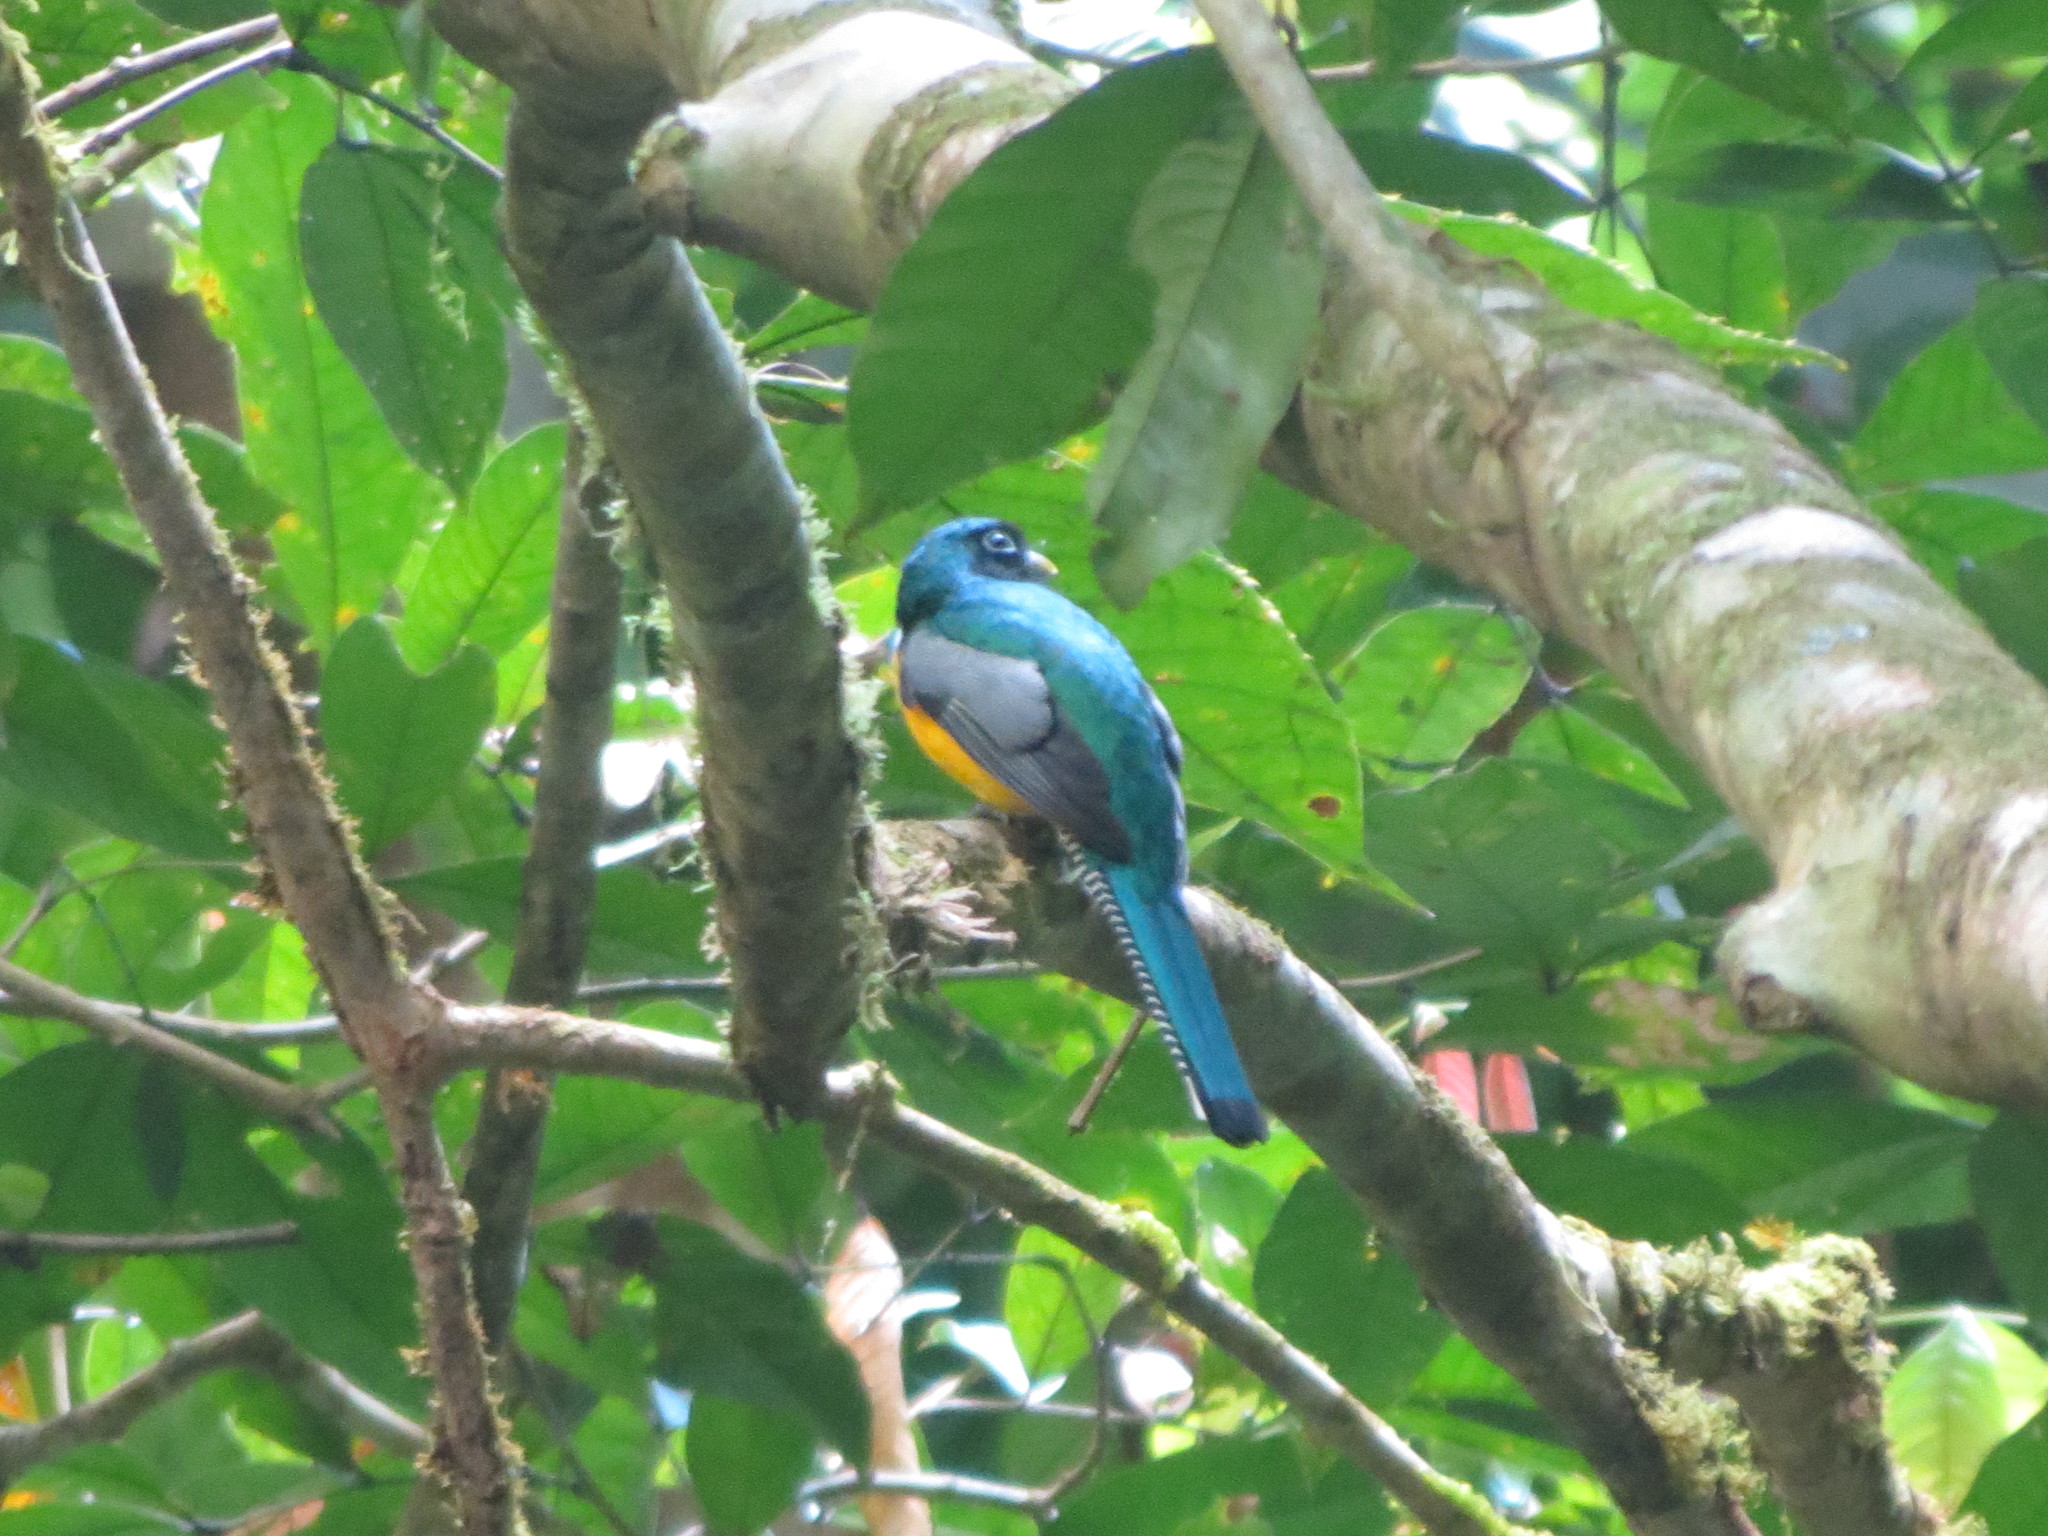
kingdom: Animalia
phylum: Chordata
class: Aves
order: Trogoniformes
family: Trogonidae
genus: Trogon
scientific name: Trogon rufus
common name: Black-throated trogon
